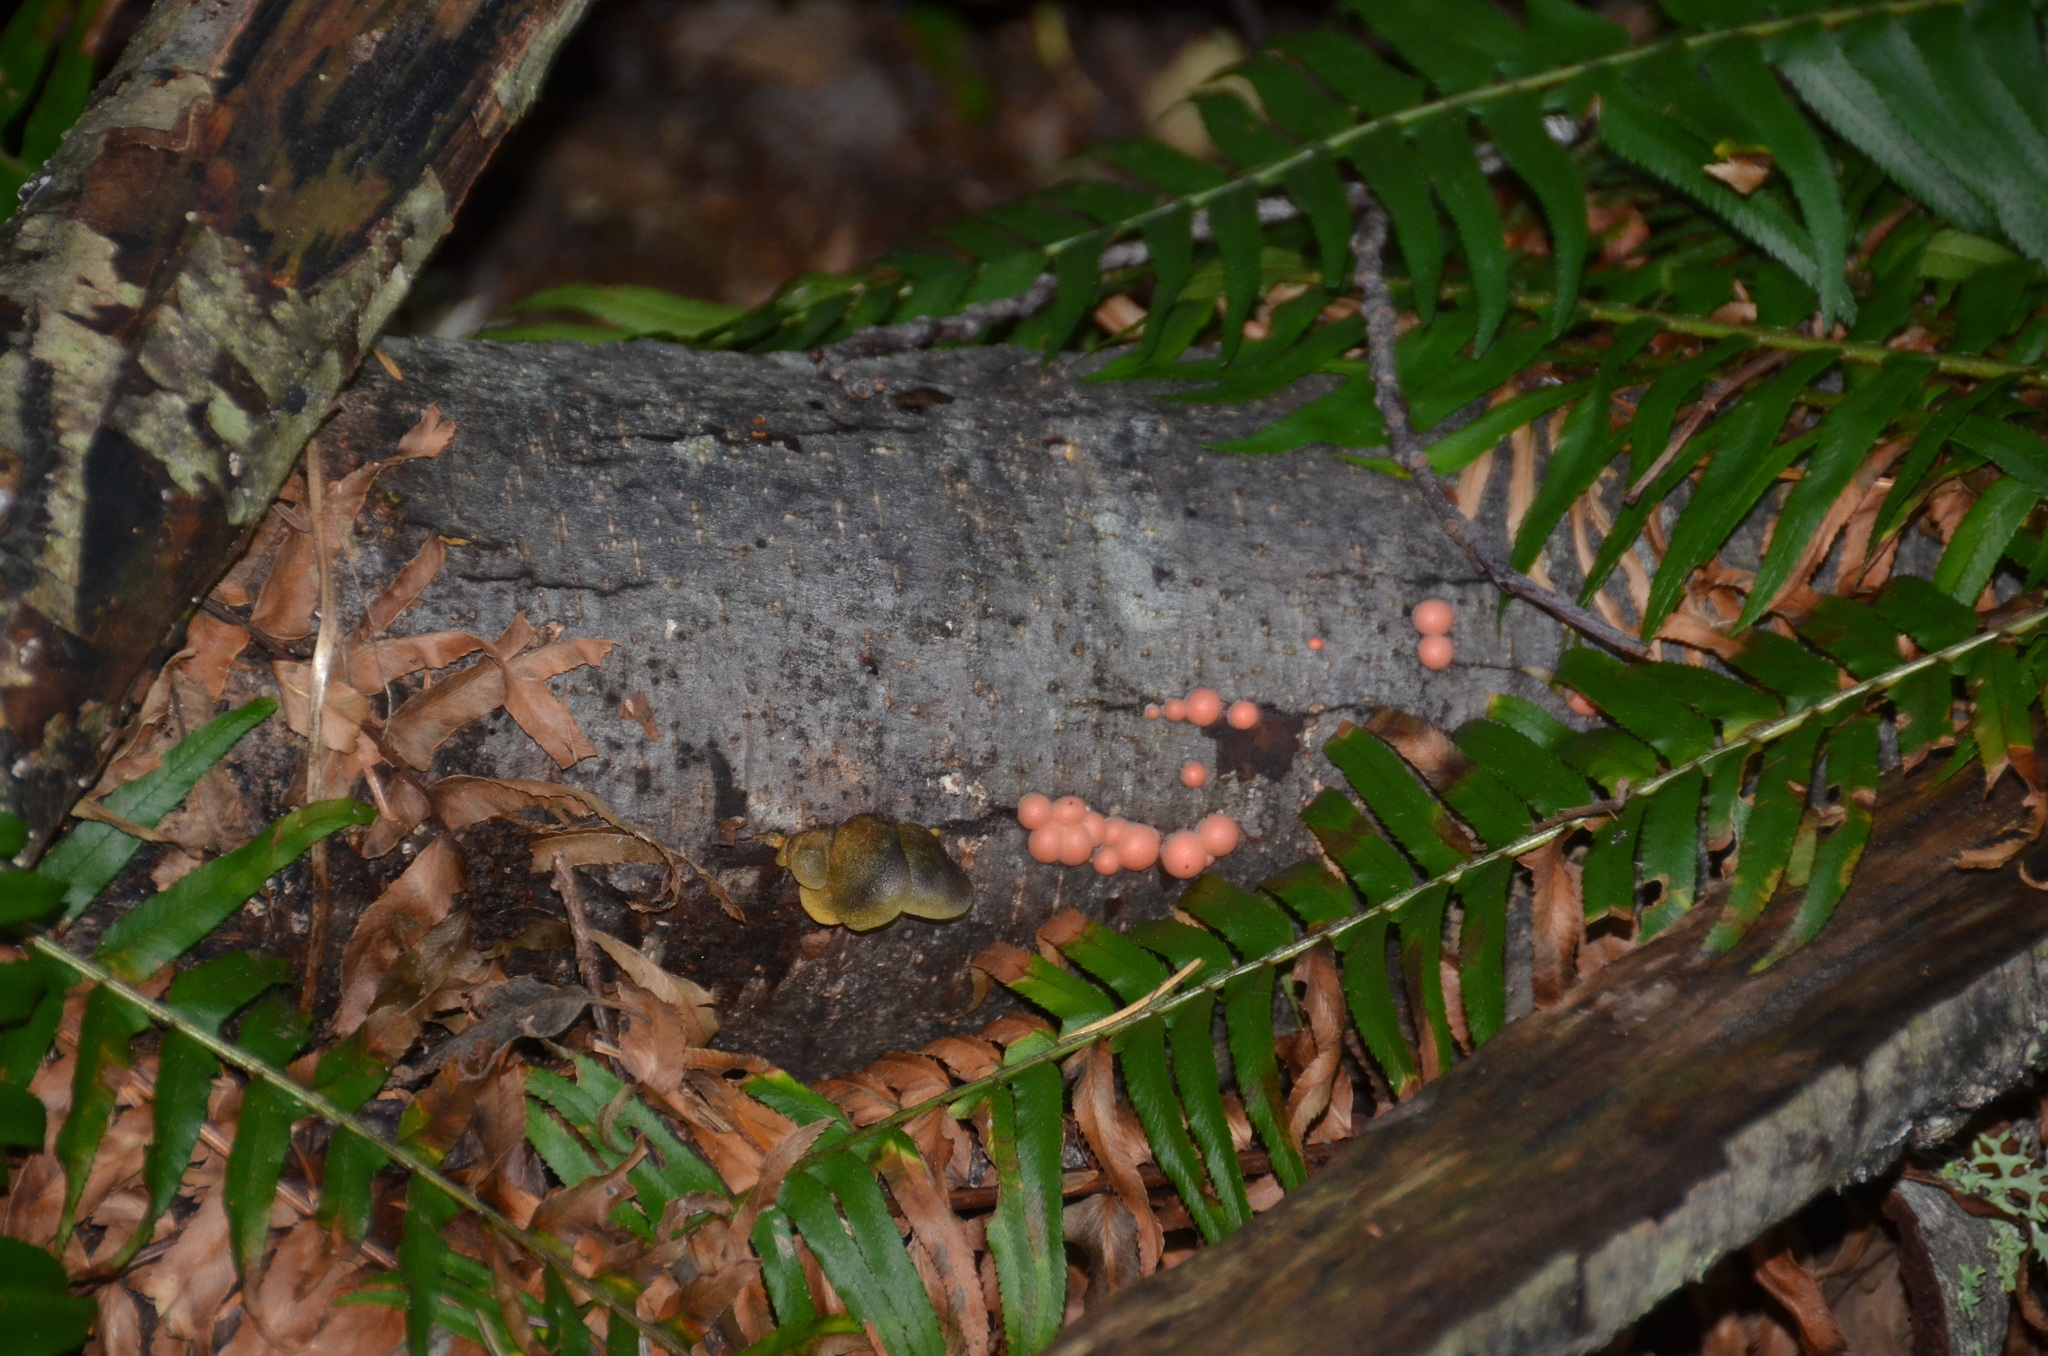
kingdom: Protozoa
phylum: Mycetozoa
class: Myxomycetes
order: Cribrariales
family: Tubiferaceae
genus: Lycogala
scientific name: Lycogala epidendrum
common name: Wolf's milk
